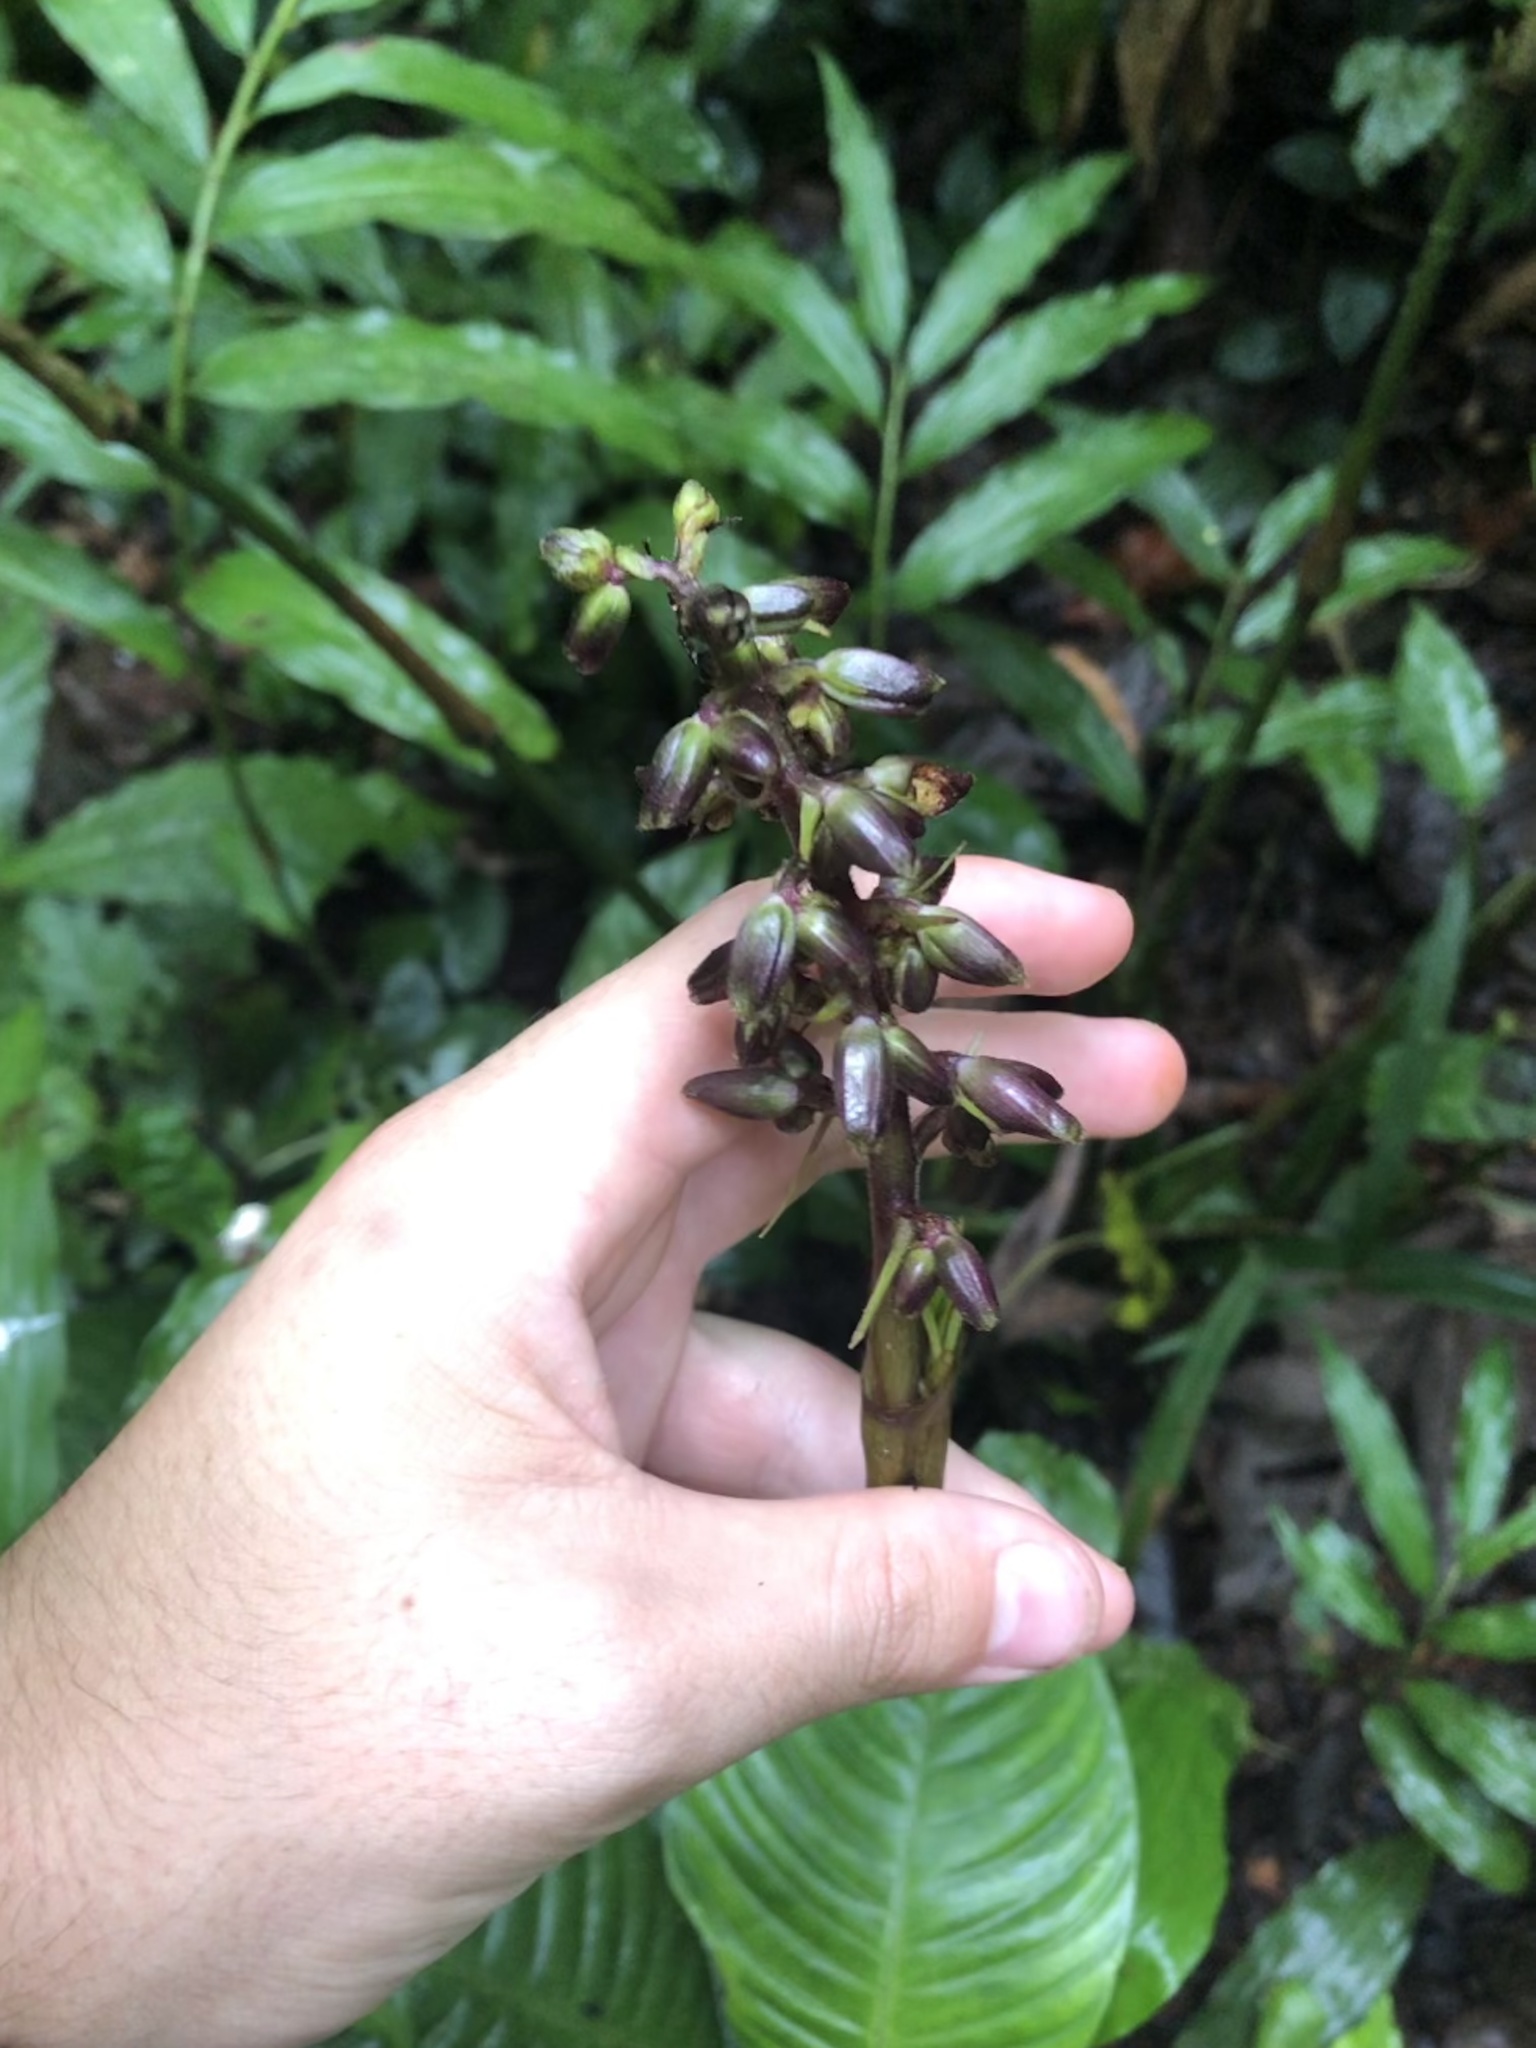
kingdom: Plantae
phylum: Tracheophyta
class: Liliopsida
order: Commelinales
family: Haemodoraceae
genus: Xiphidium
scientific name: Xiphidium caeruleum
